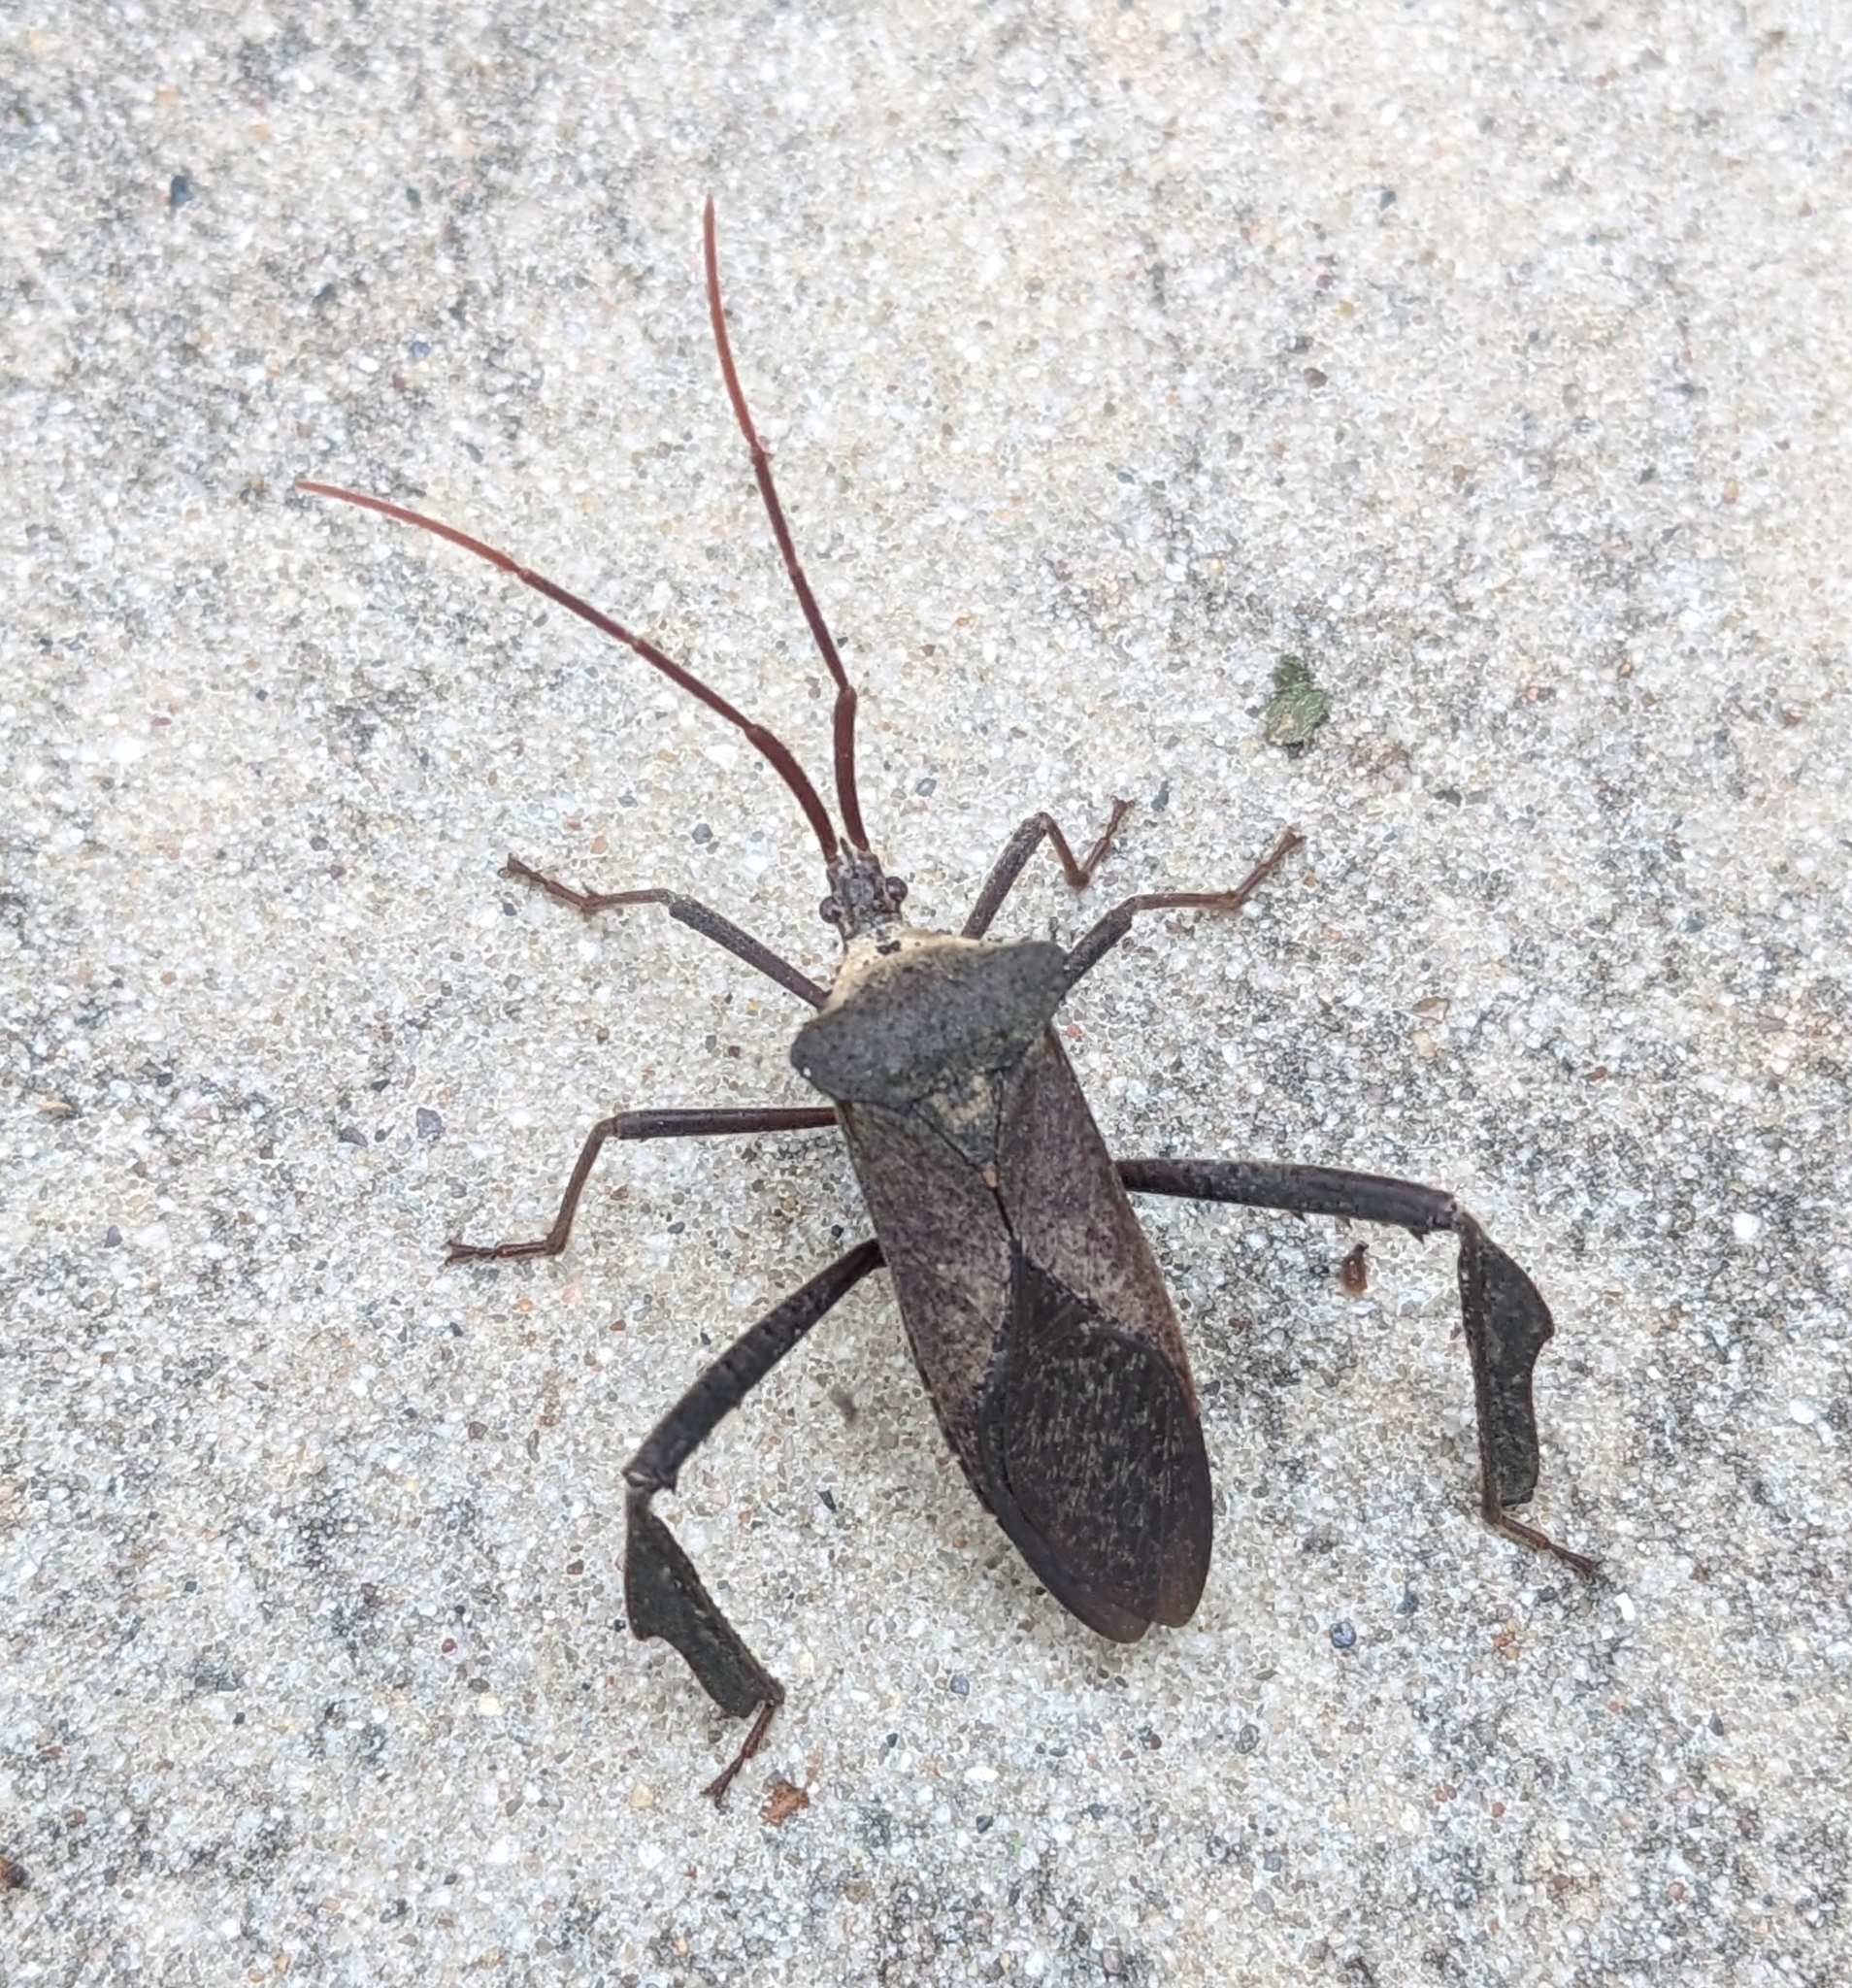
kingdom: Animalia
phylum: Arthropoda
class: Insecta
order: Hemiptera
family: Coreidae
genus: Acanthocephala
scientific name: Acanthocephala declivis
